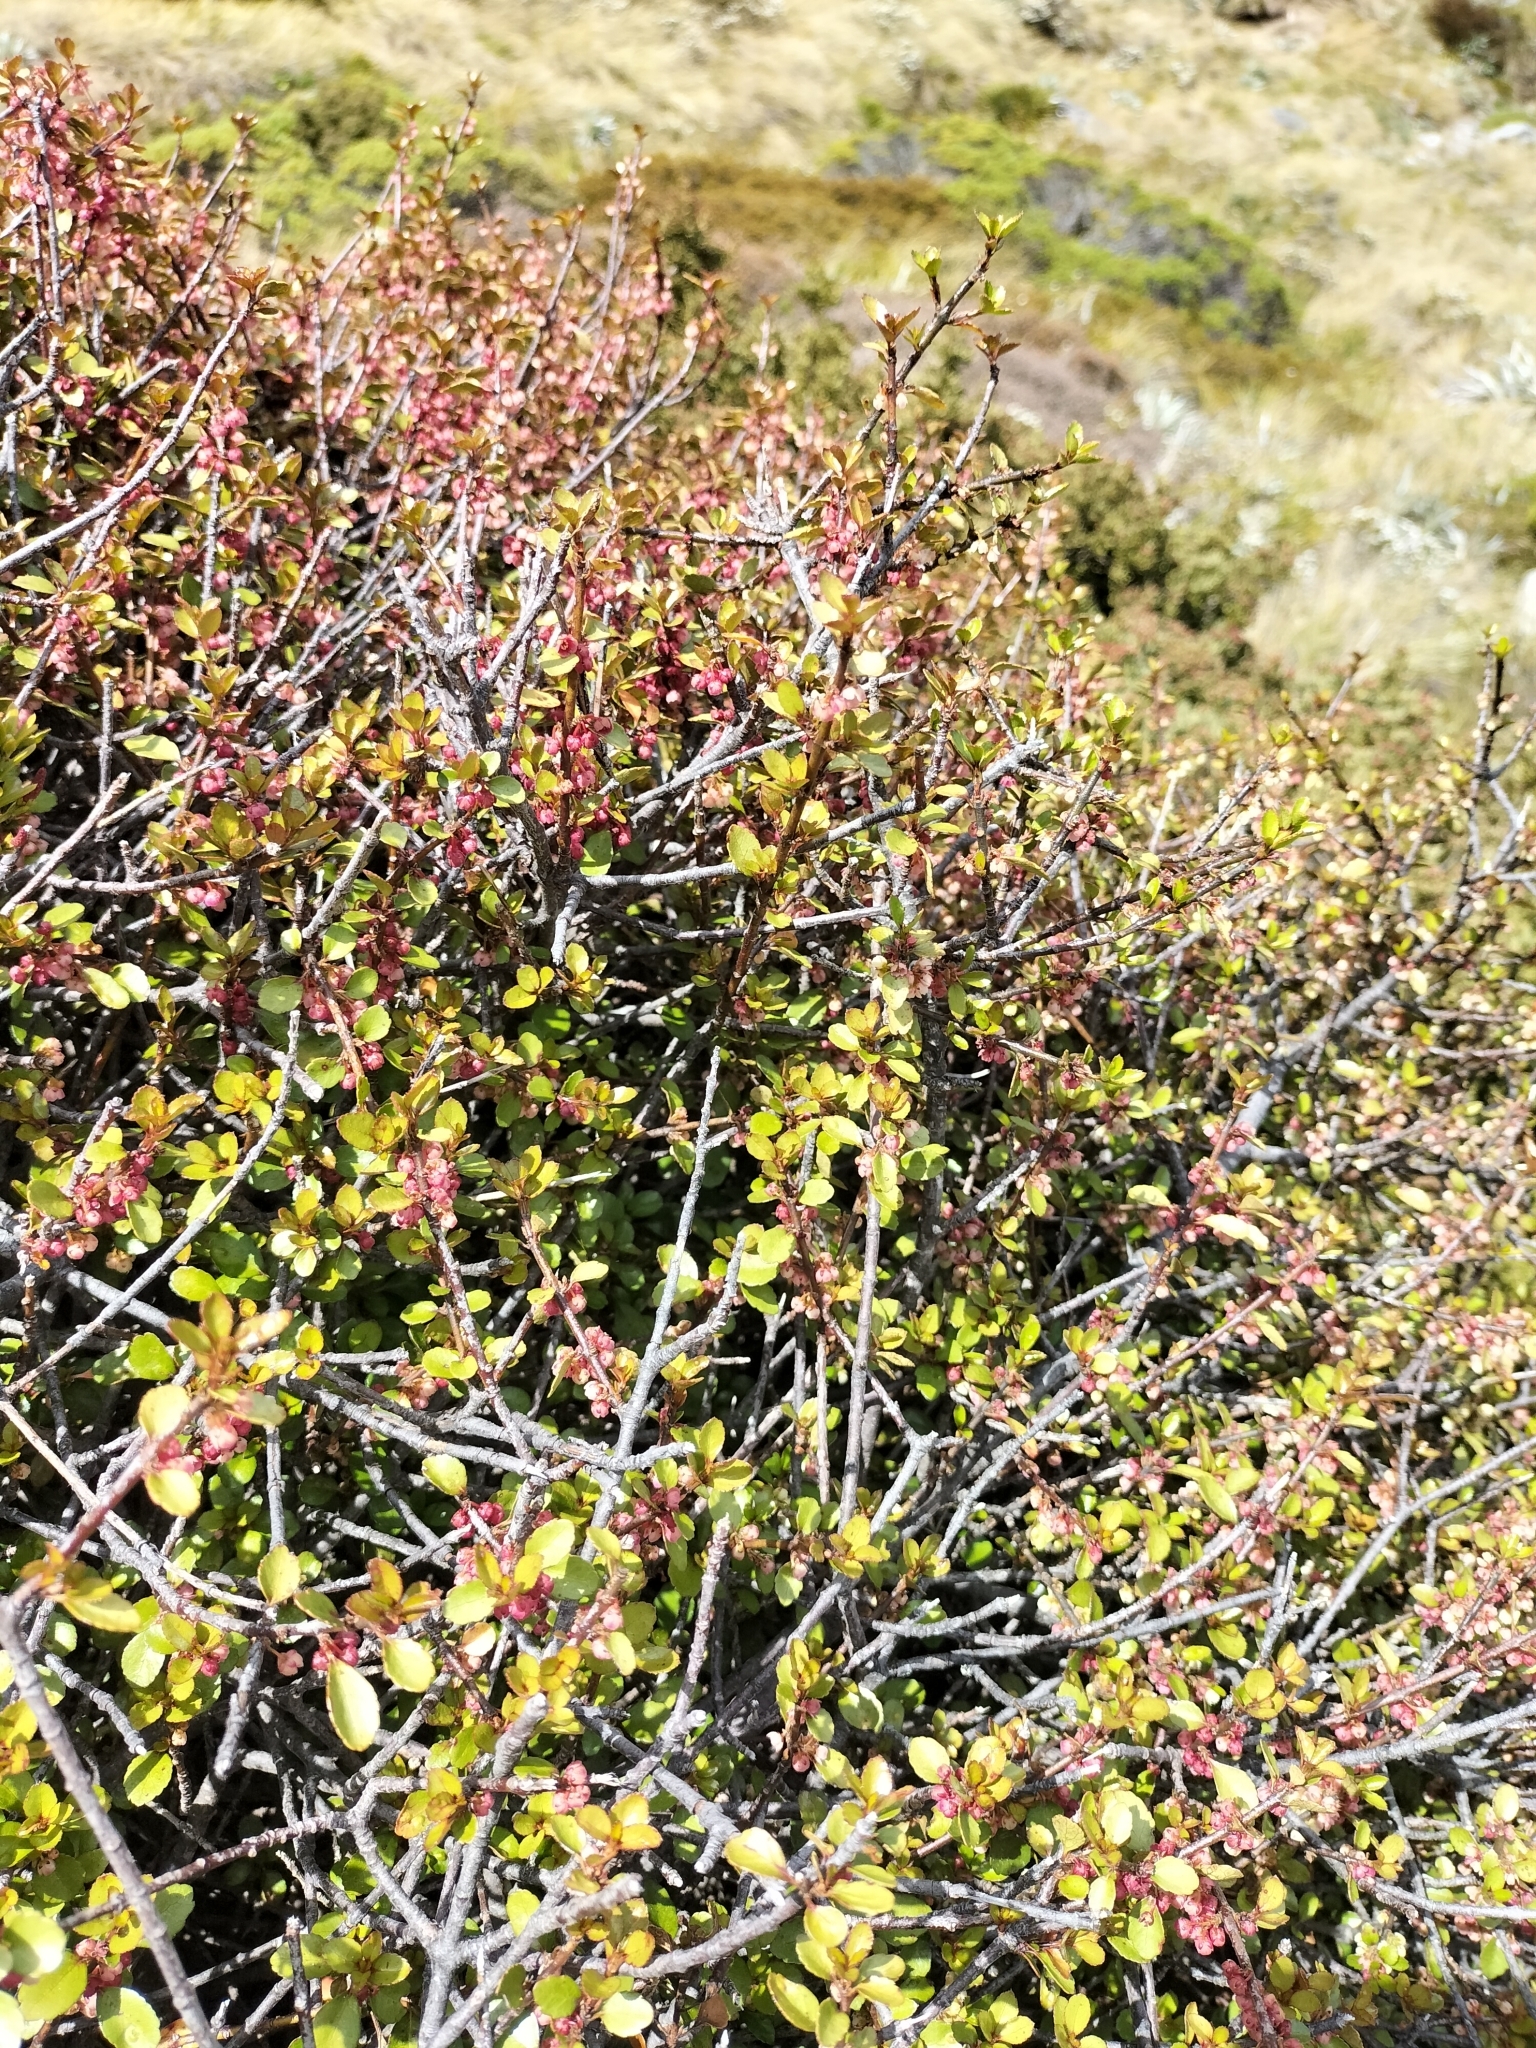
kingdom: Plantae
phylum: Tracheophyta
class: Magnoliopsida
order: Oxalidales
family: Elaeocarpaceae
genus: Aristotelia
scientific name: Aristotelia fruticosa
